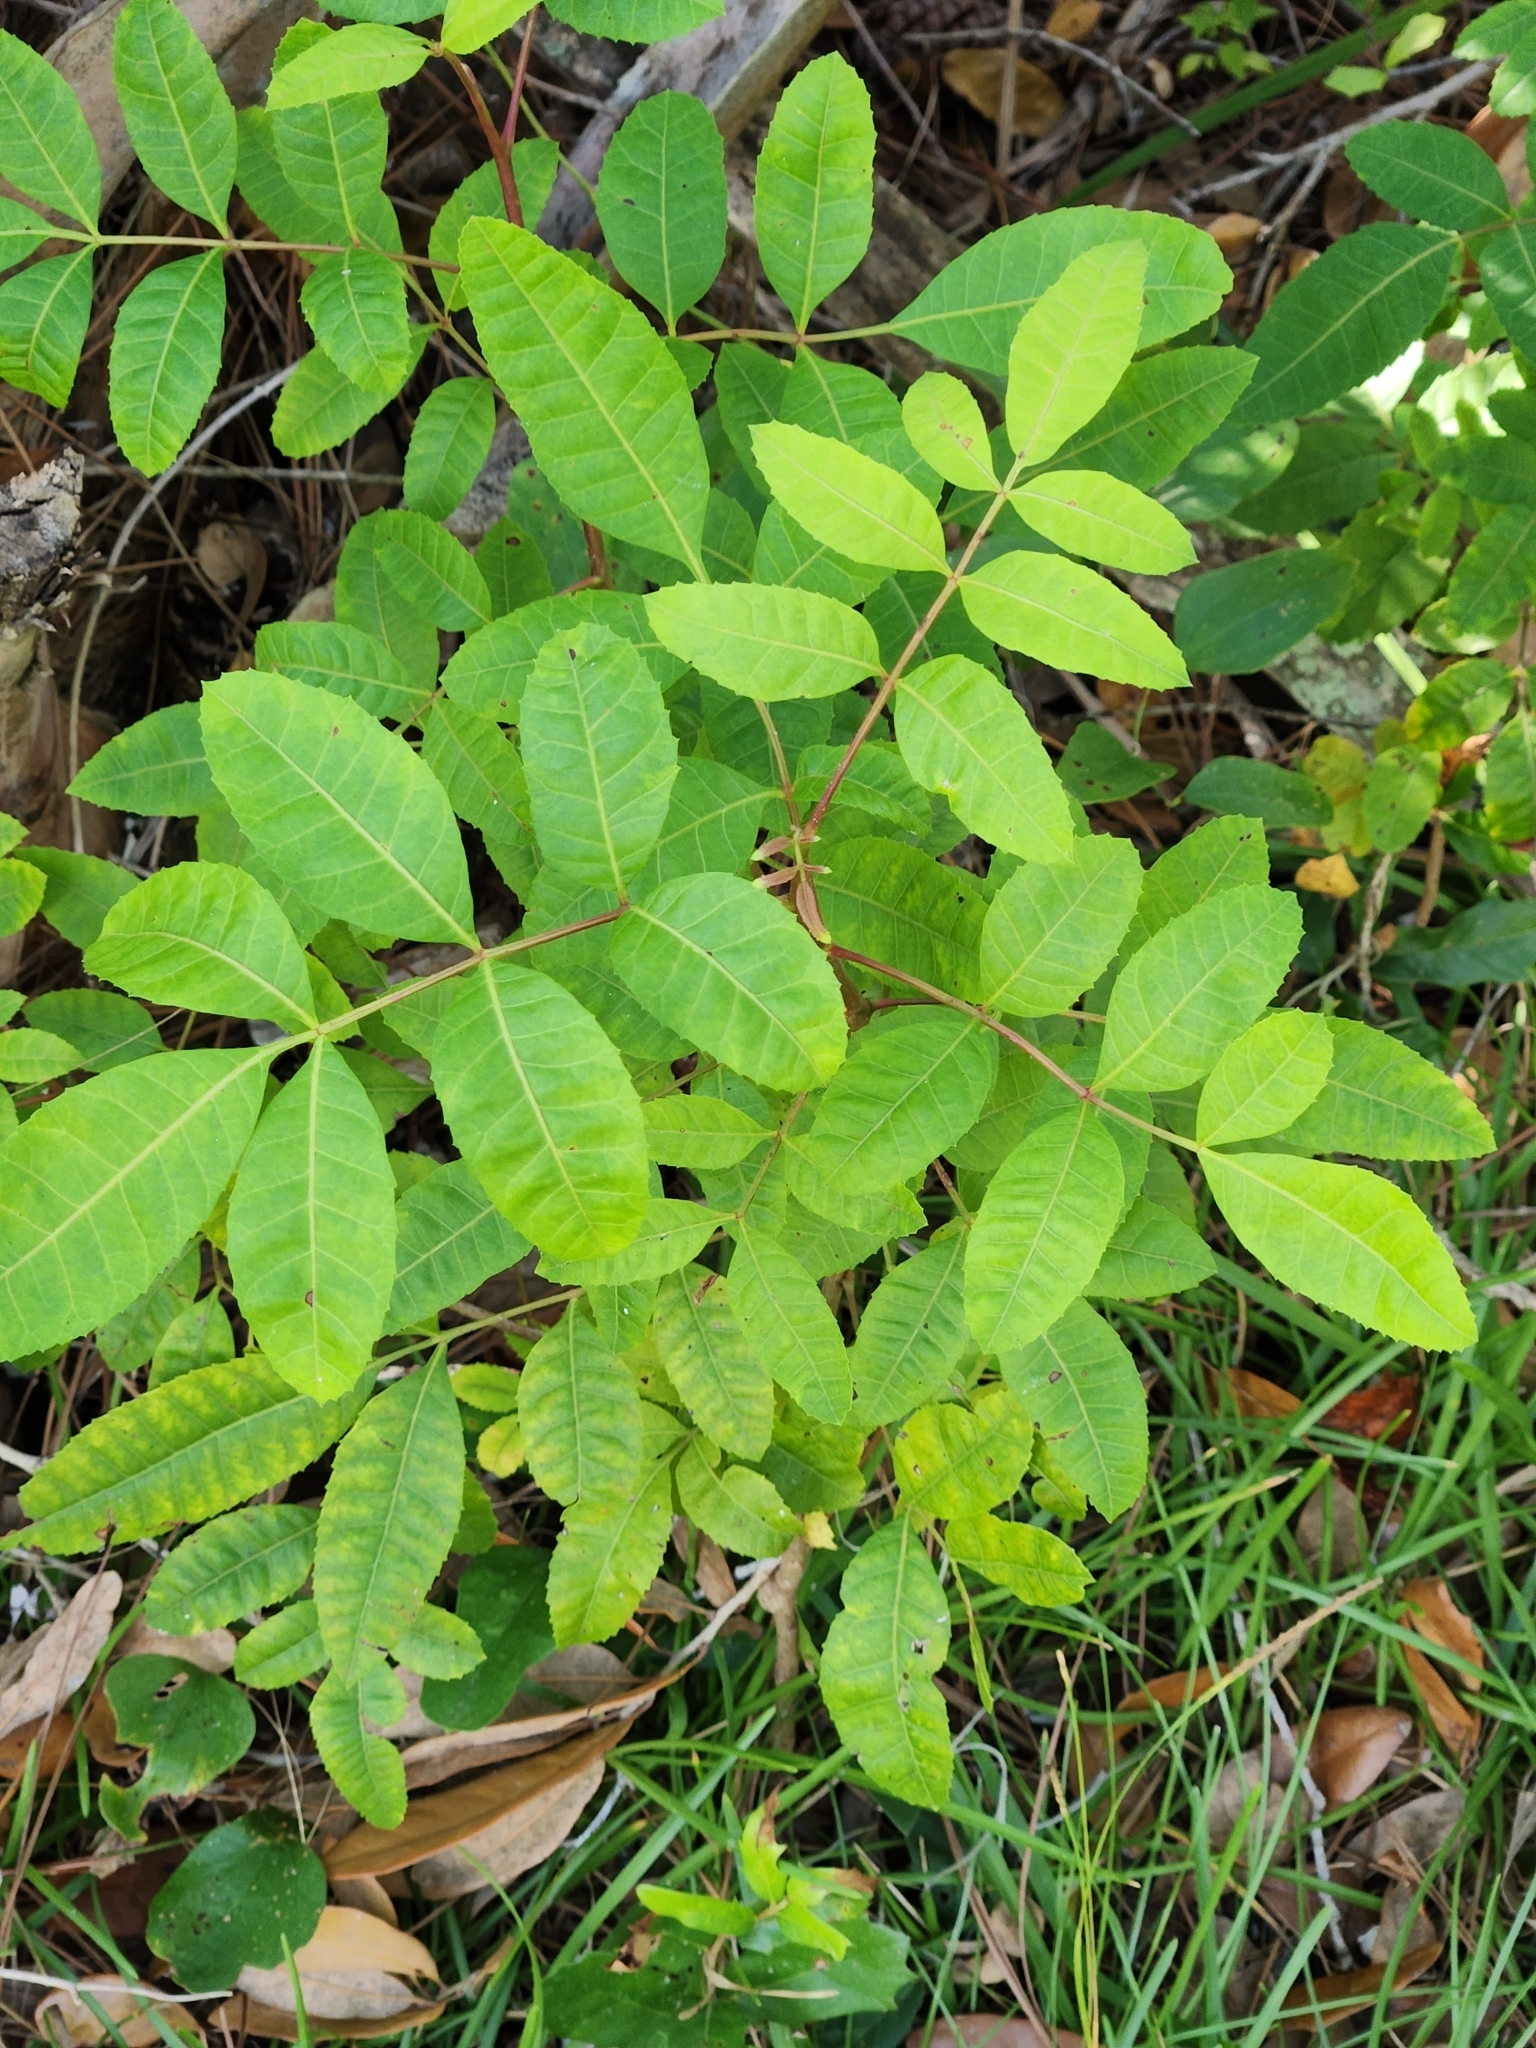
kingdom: Plantae
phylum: Tracheophyta
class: Magnoliopsida
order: Sapindales
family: Anacardiaceae
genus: Schinus
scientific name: Schinus terebinthifolia
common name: Brazilian peppertree
